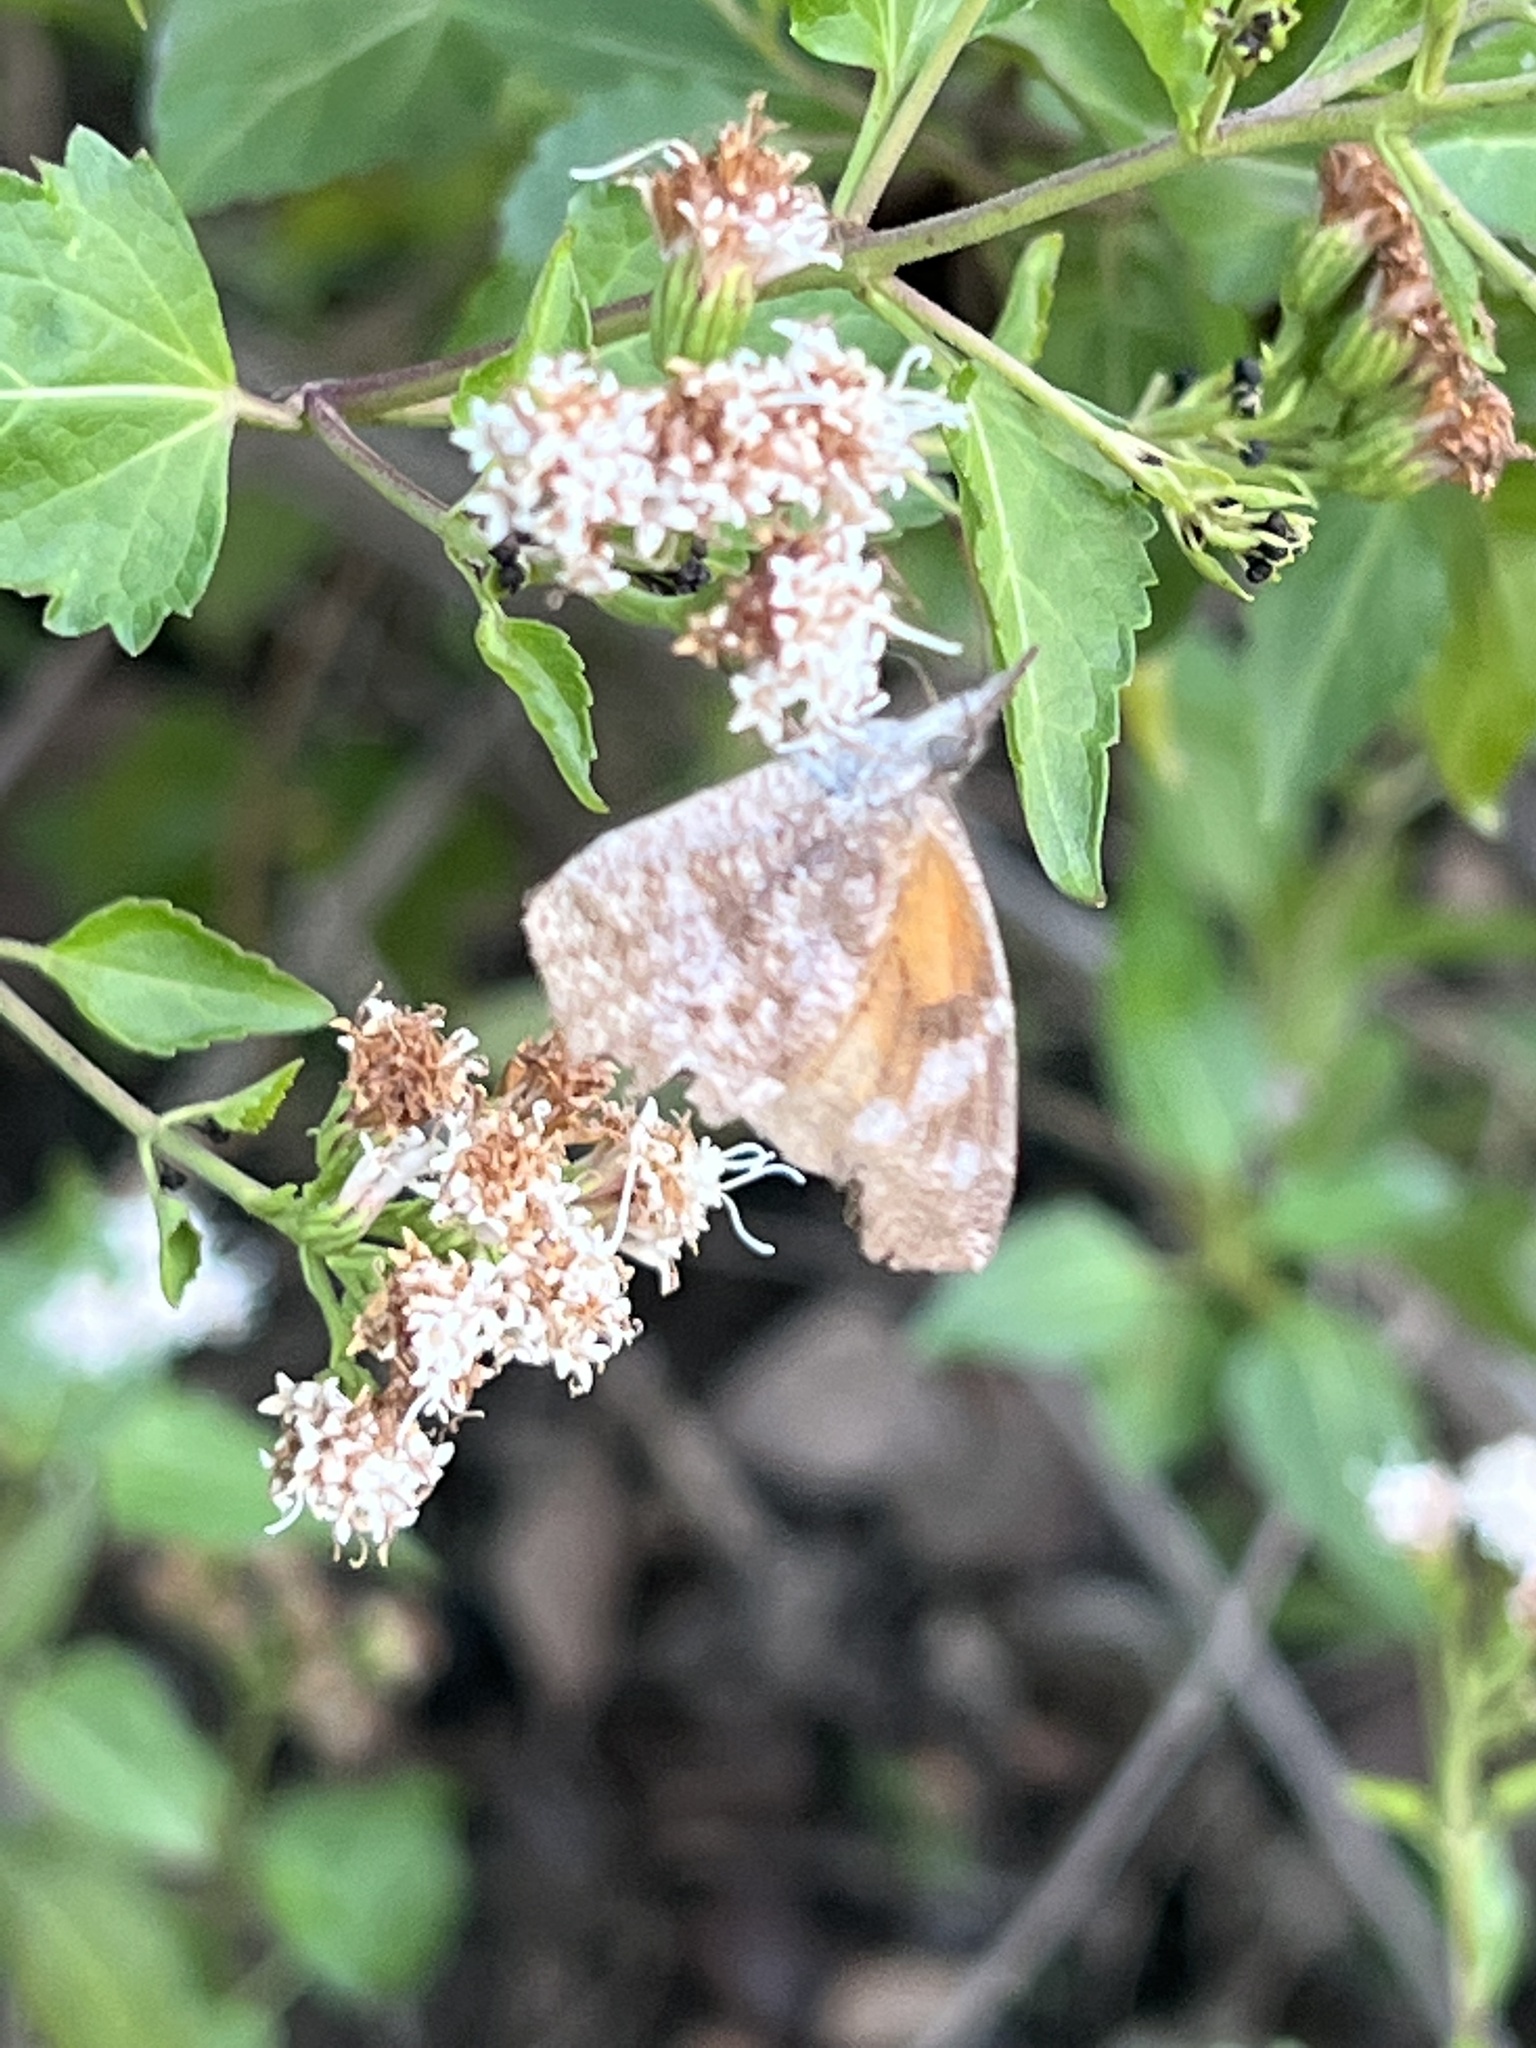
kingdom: Animalia
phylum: Arthropoda
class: Insecta
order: Lepidoptera
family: Nymphalidae
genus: Libytheana
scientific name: Libytheana carinenta
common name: American snout
